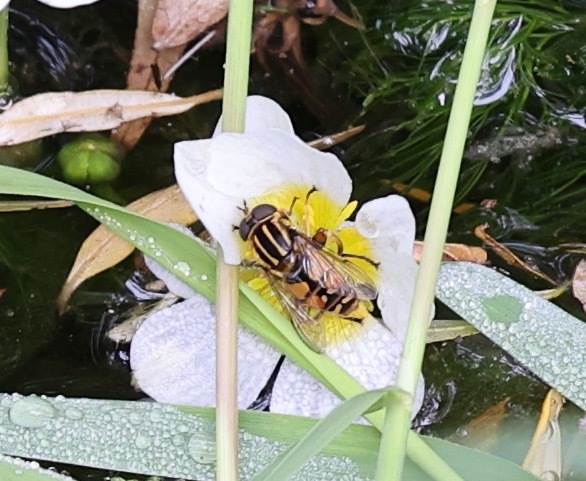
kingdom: Animalia
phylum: Arthropoda
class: Insecta
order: Diptera
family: Syrphidae
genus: Helophilus
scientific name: Helophilus pendulus
